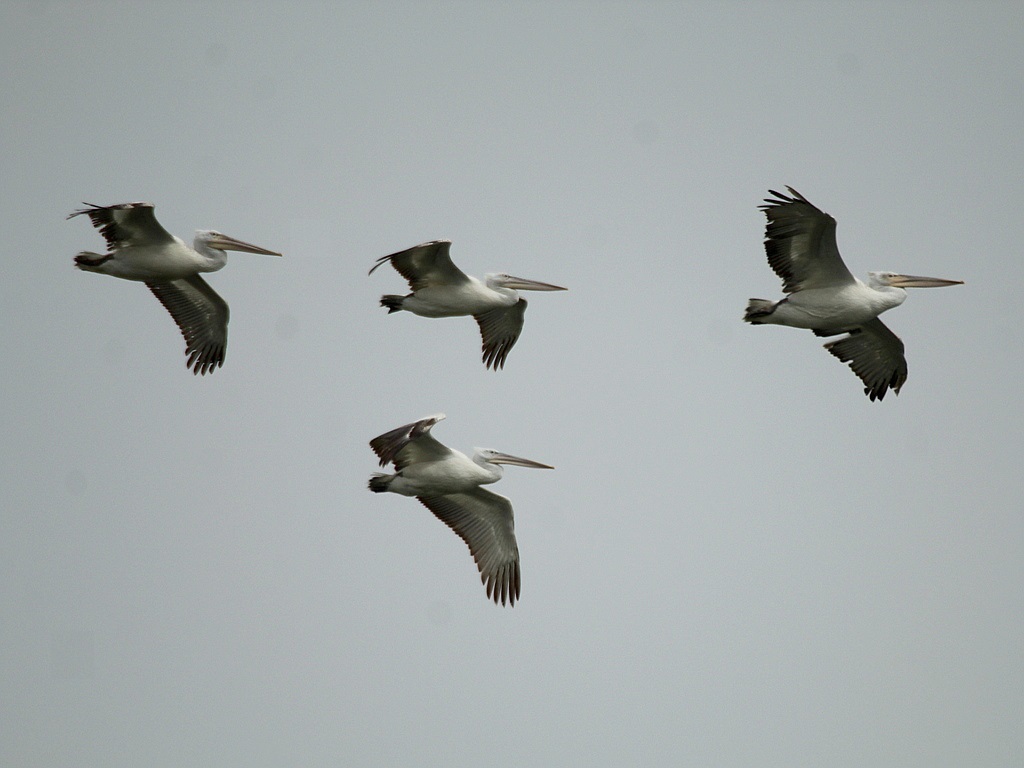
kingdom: Animalia
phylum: Chordata
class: Aves
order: Pelecaniformes
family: Pelecanidae
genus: Pelecanus
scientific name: Pelecanus crispus
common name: Dalmatian pelican
